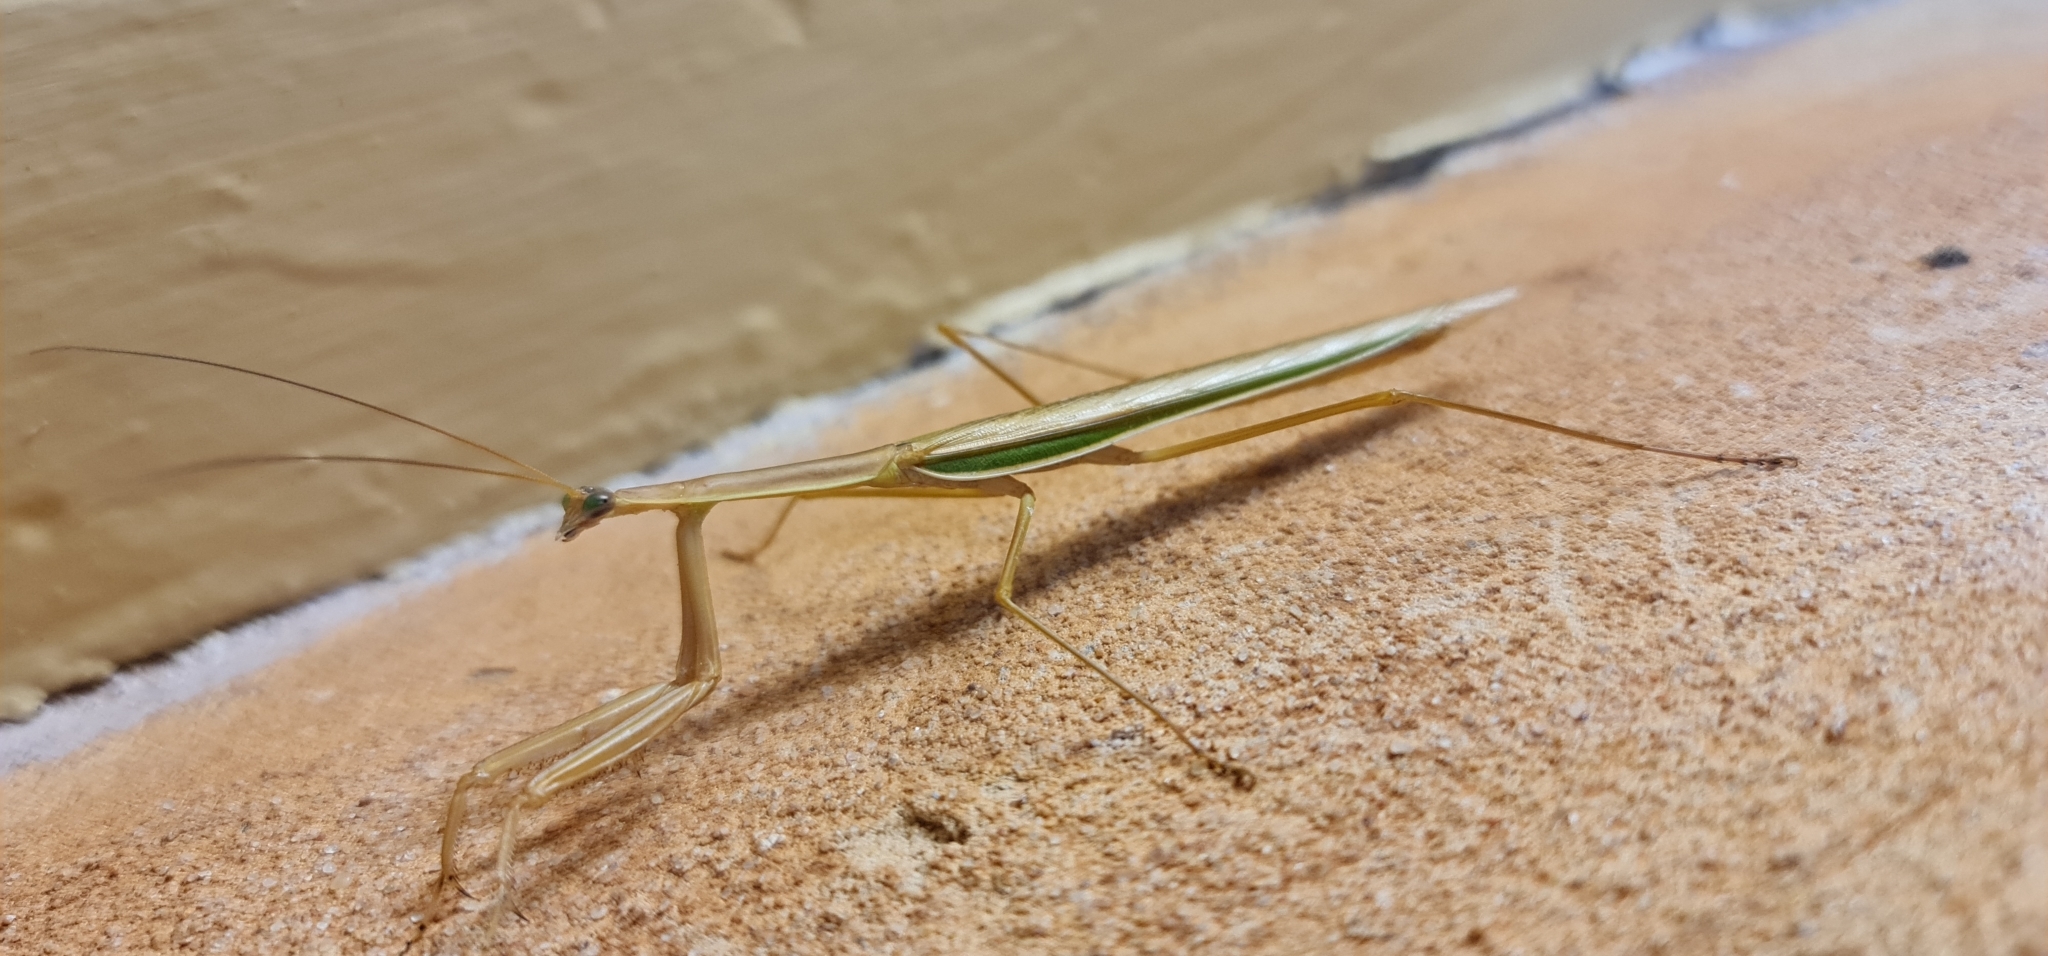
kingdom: Animalia
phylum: Arthropoda
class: Insecta
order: Mantodea
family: Mantidae
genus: Tenodera
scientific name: Tenodera australasiae
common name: Purple-winged mantis
